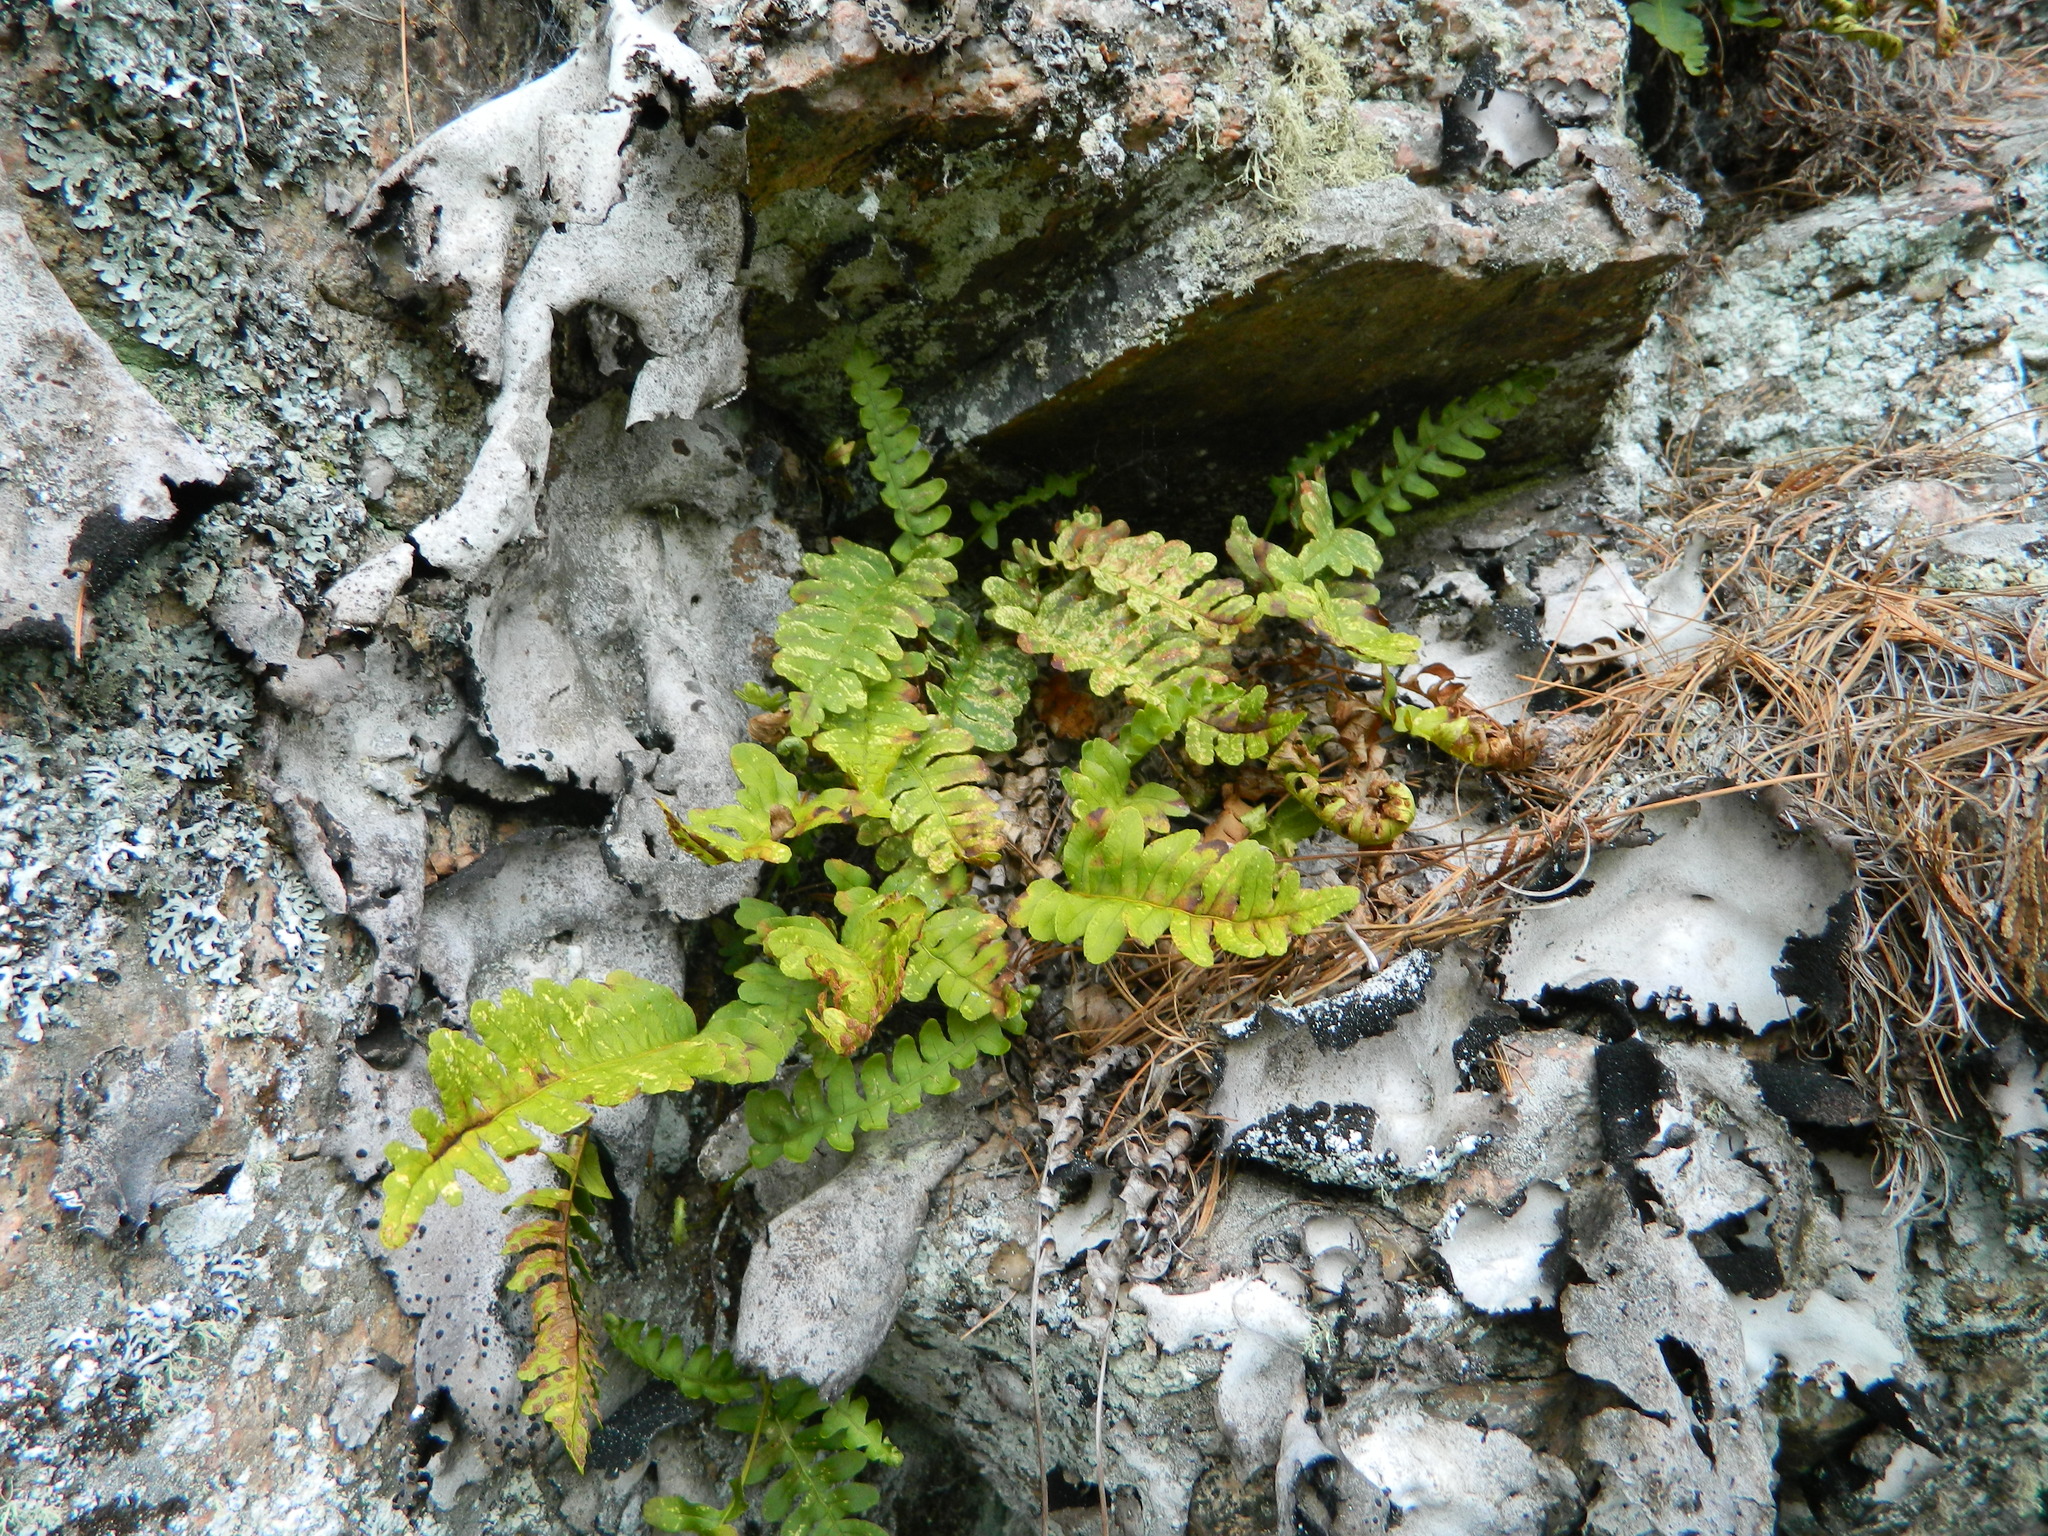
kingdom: Plantae
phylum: Tracheophyta
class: Polypodiopsida
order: Polypodiales
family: Polypodiaceae
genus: Polypodium
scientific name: Polypodium virginianum
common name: American wall fern
